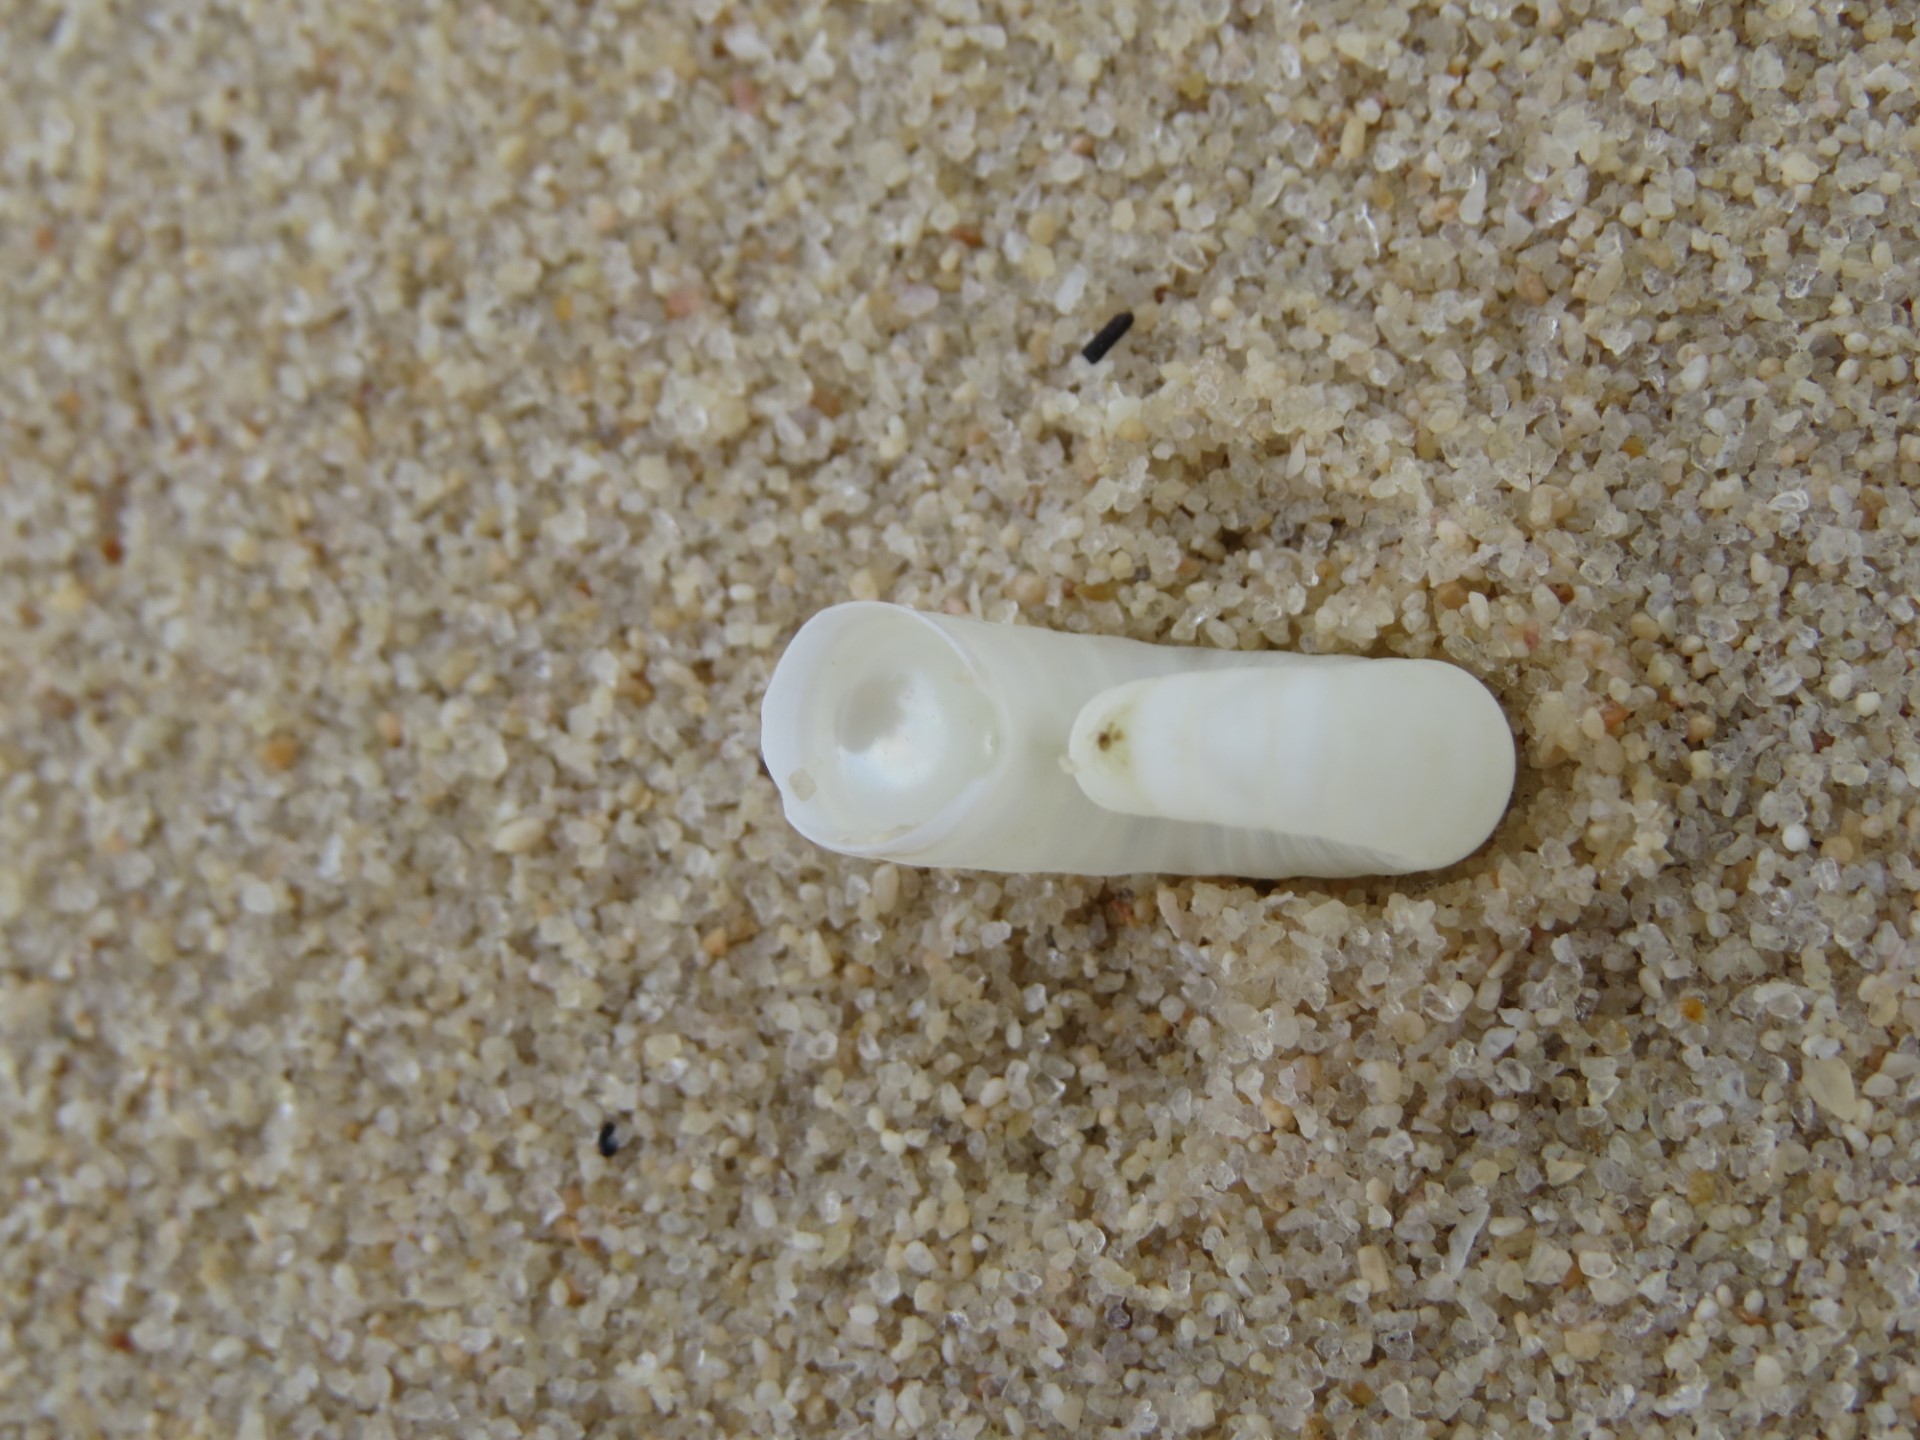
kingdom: Animalia
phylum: Mollusca
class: Cephalopoda
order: Spirulida
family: Spirulidae
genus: Spirula
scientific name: Spirula spirula
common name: Ram's horn squid
